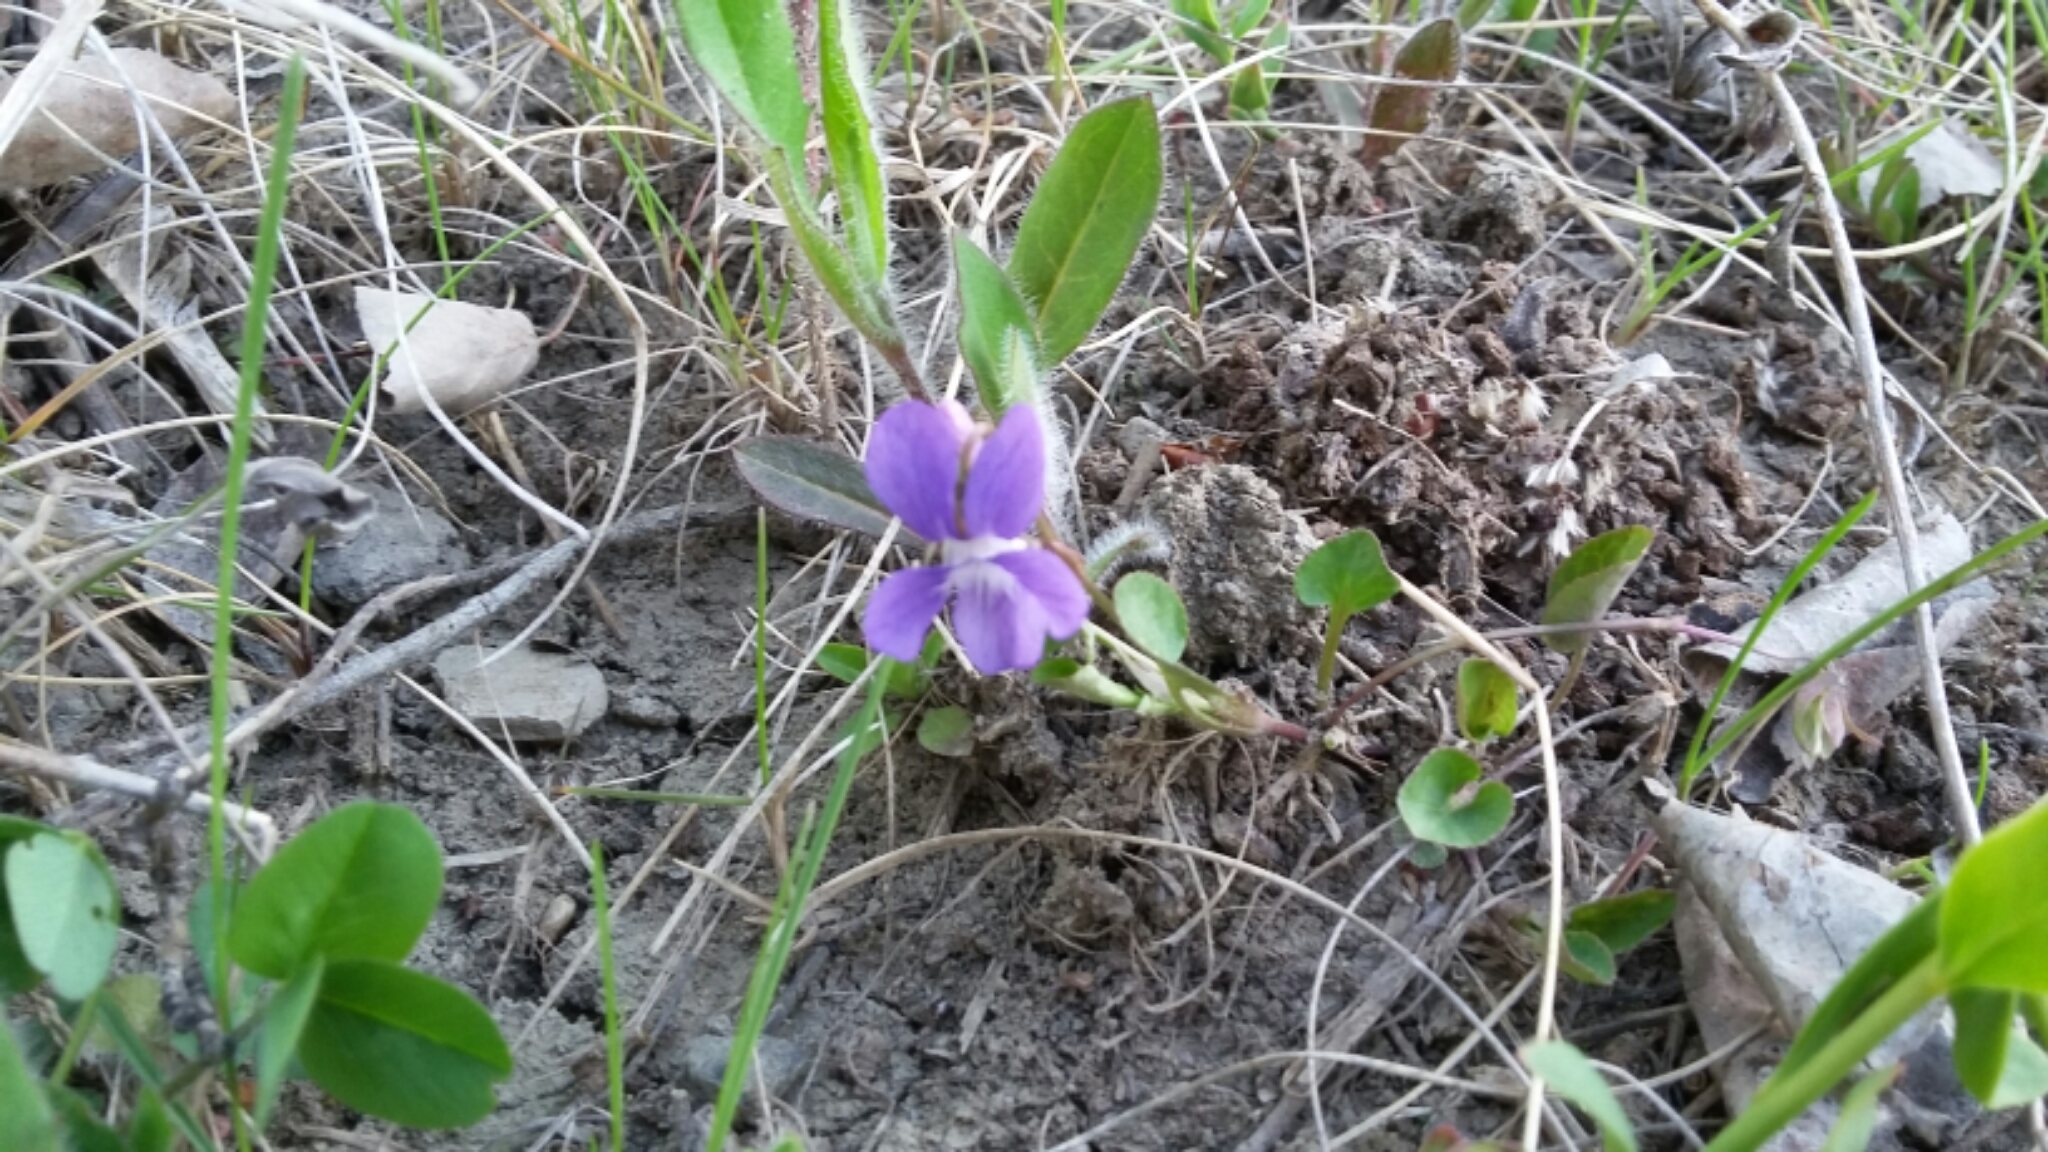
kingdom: Plantae
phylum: Tracheophyta
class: Magnoliopsida
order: Malpighiales
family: Violaceae
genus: Viola
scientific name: Viola adunca
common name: Sand violet
